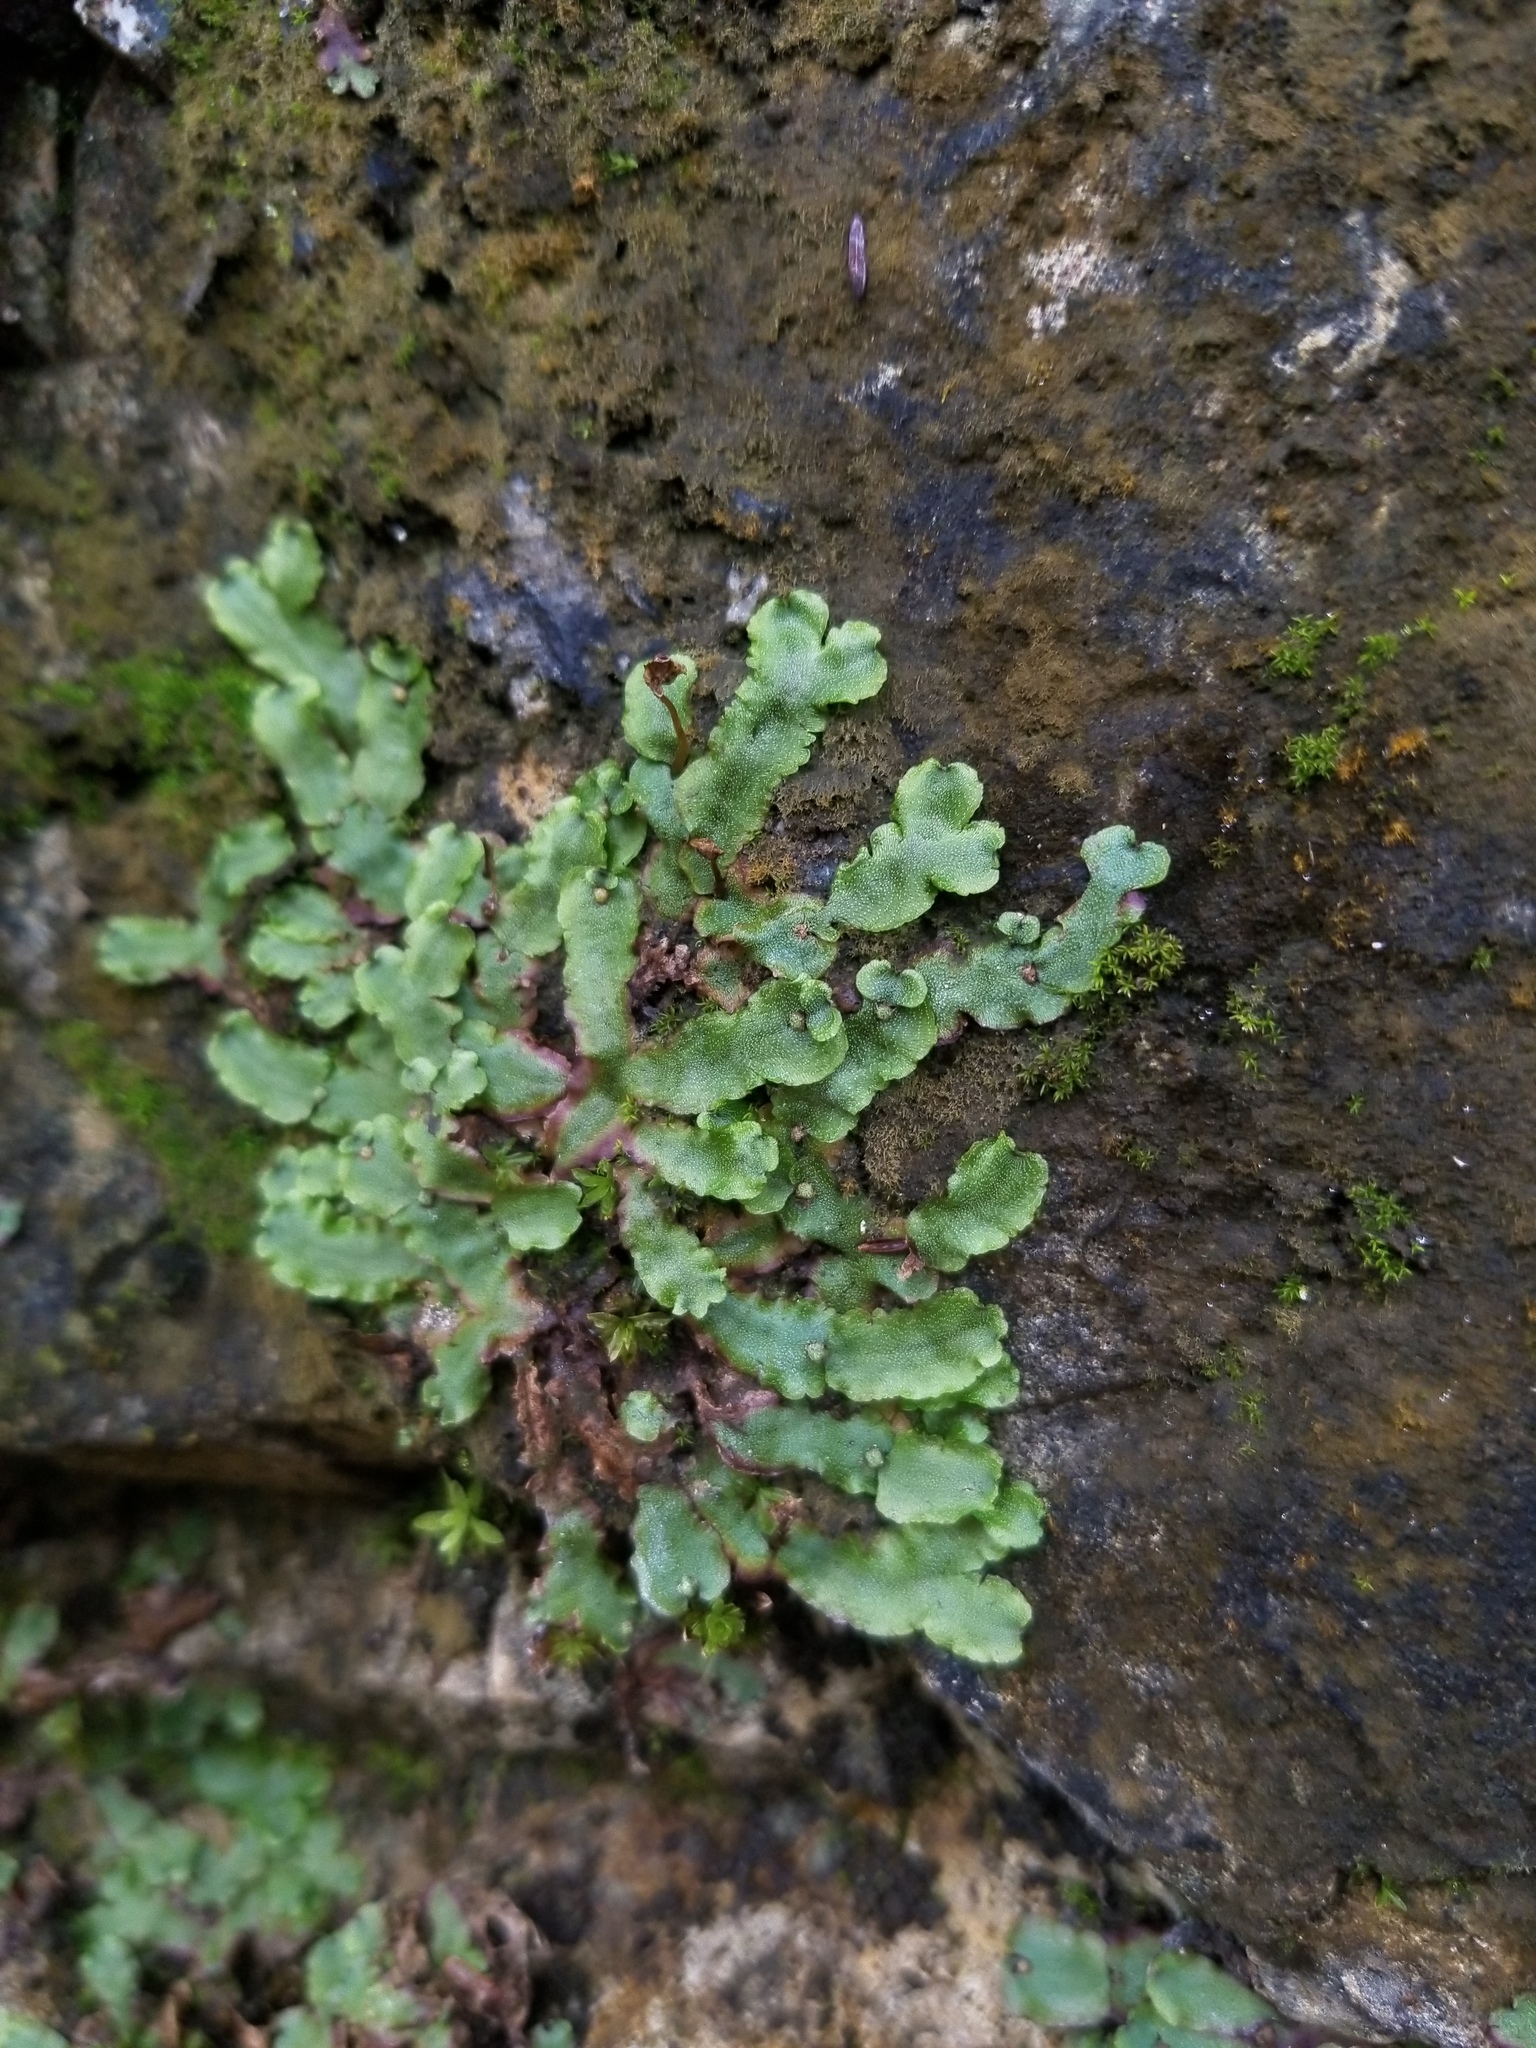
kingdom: Plantae
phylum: Marchantiophyta
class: Marchantiopsida
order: Marchantiales
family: Conocephalaceae
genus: Conocephalum
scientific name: Conocephalum salebrosum
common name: Cat-tongue liverwort
